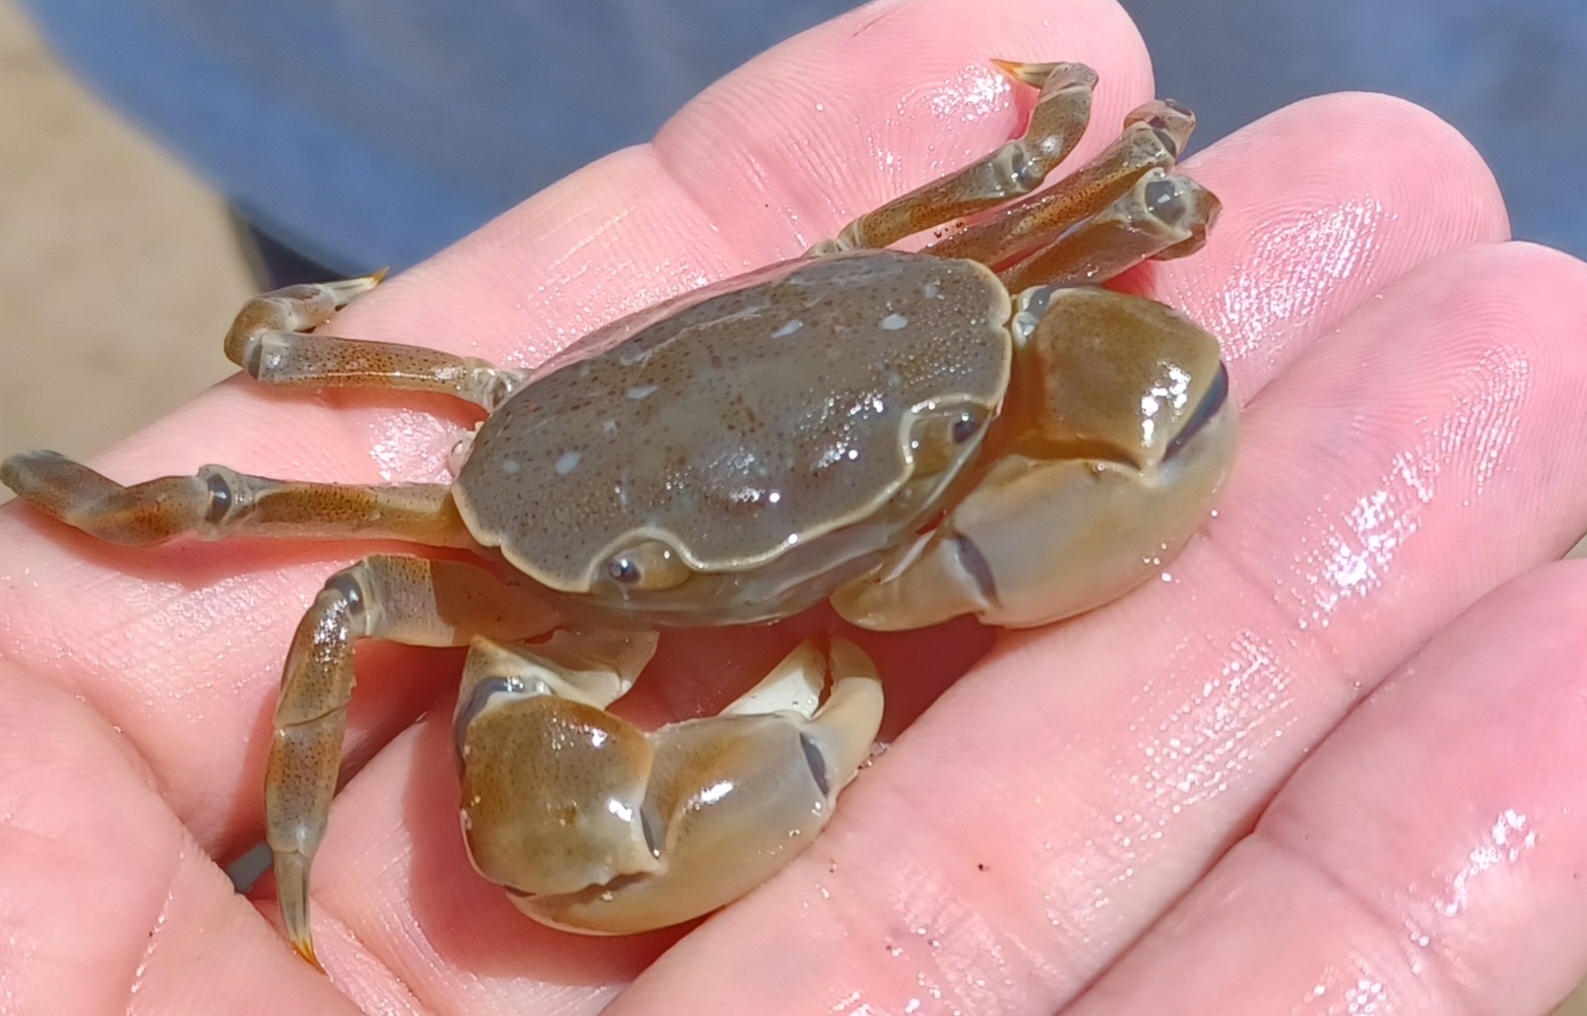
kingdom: Animalia
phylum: Arthropoda
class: Malacostraca
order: Decapoda
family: Varunidae
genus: Paragrapsus
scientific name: Paragrapsus quadridentatus
